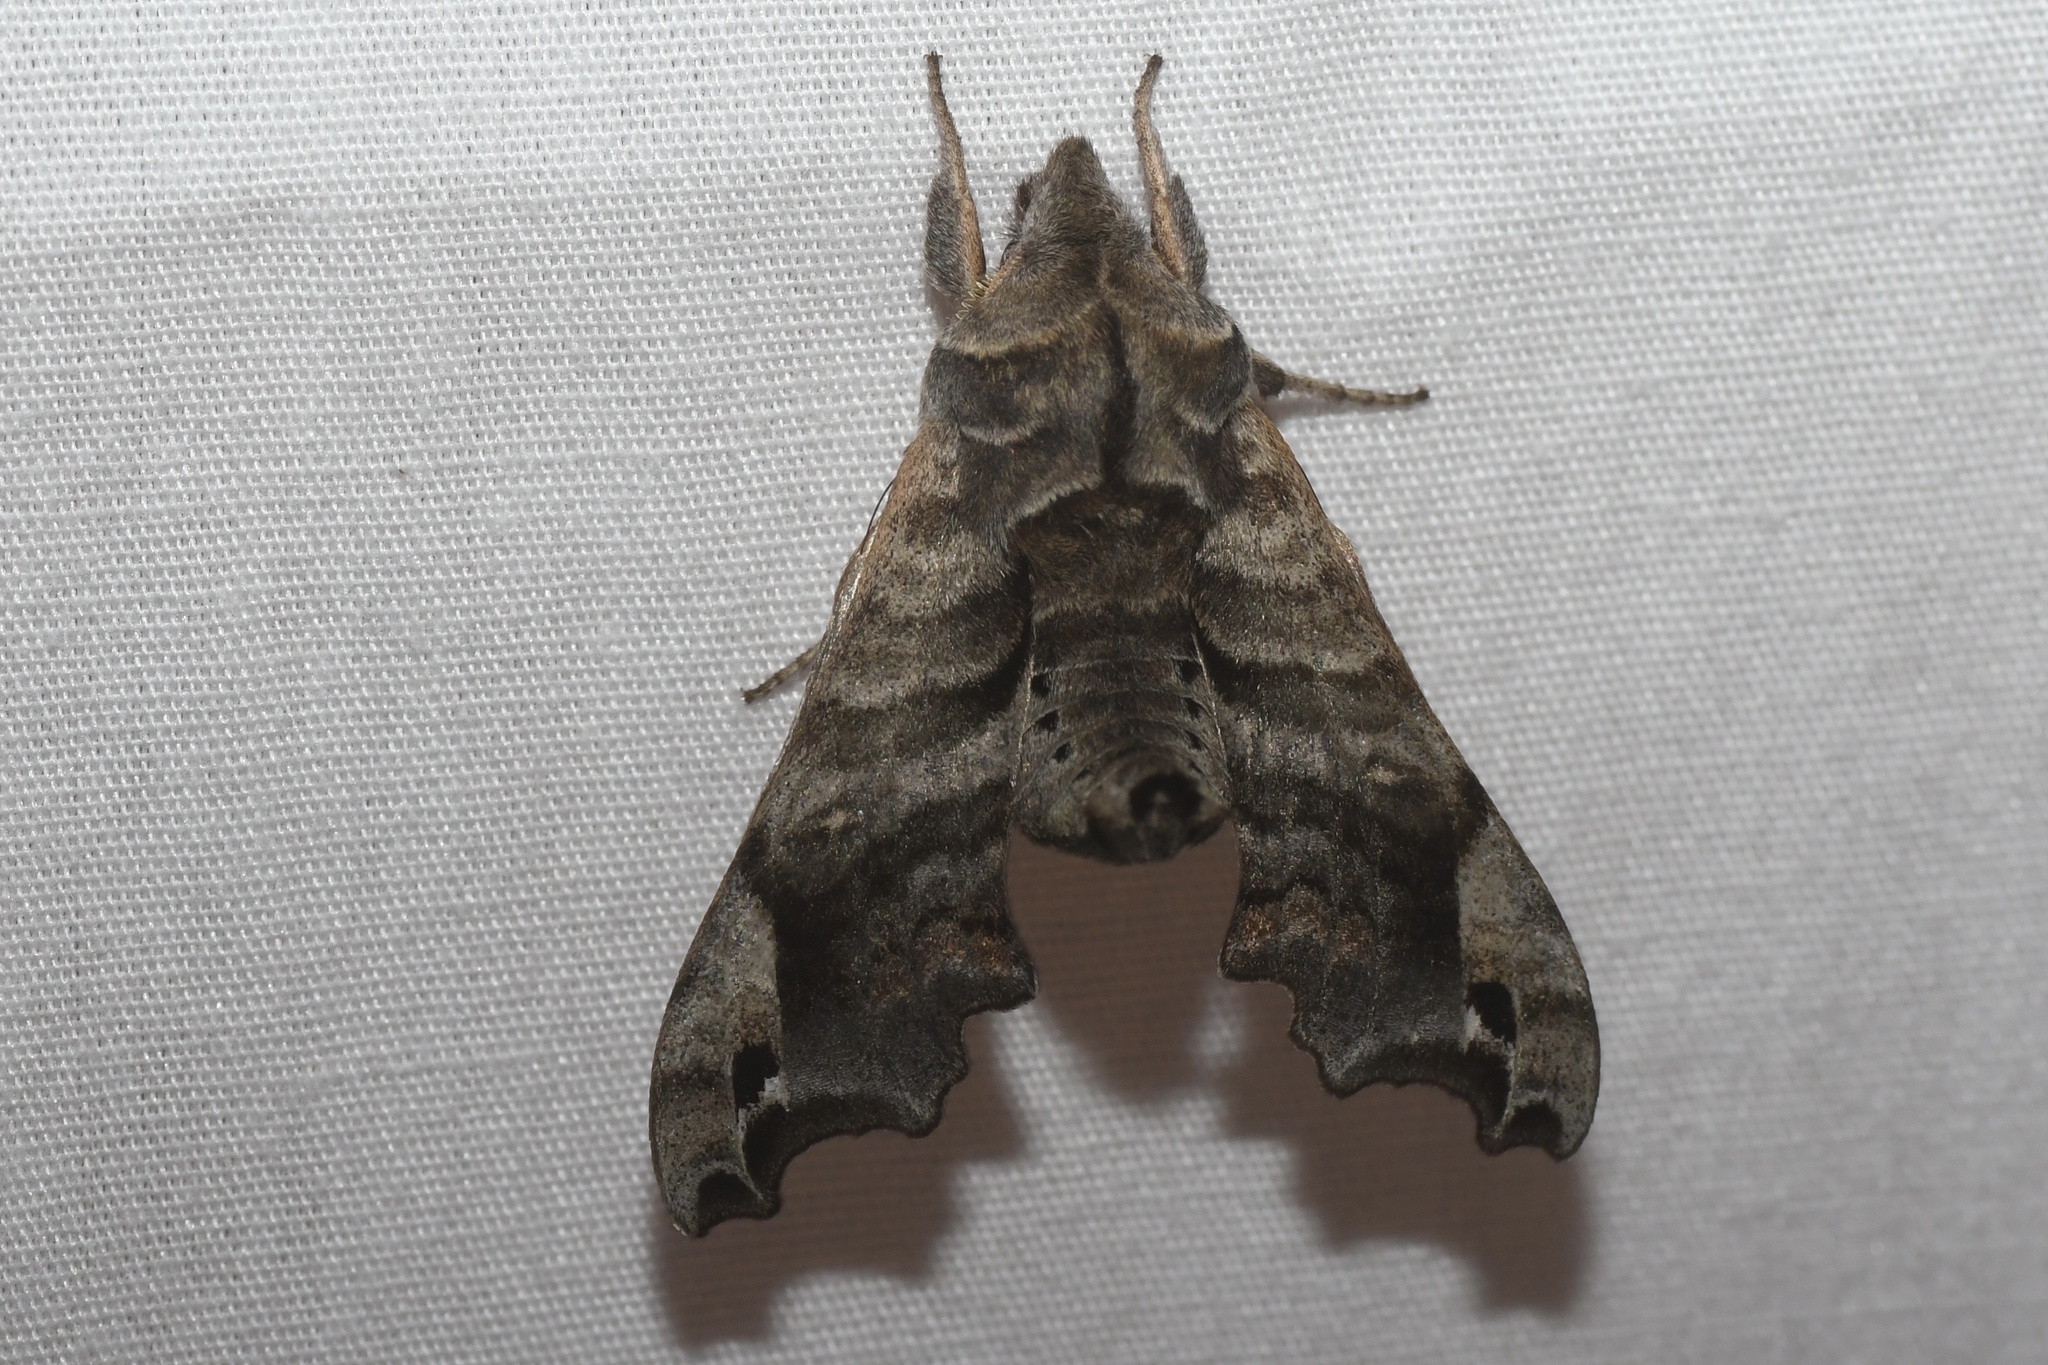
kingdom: Animalia
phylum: Arthropoda
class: Insecta
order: Lepidoptera
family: Sphingidae
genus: Deidamia
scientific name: Deidamia inscriptum
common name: Lettered sphinx
